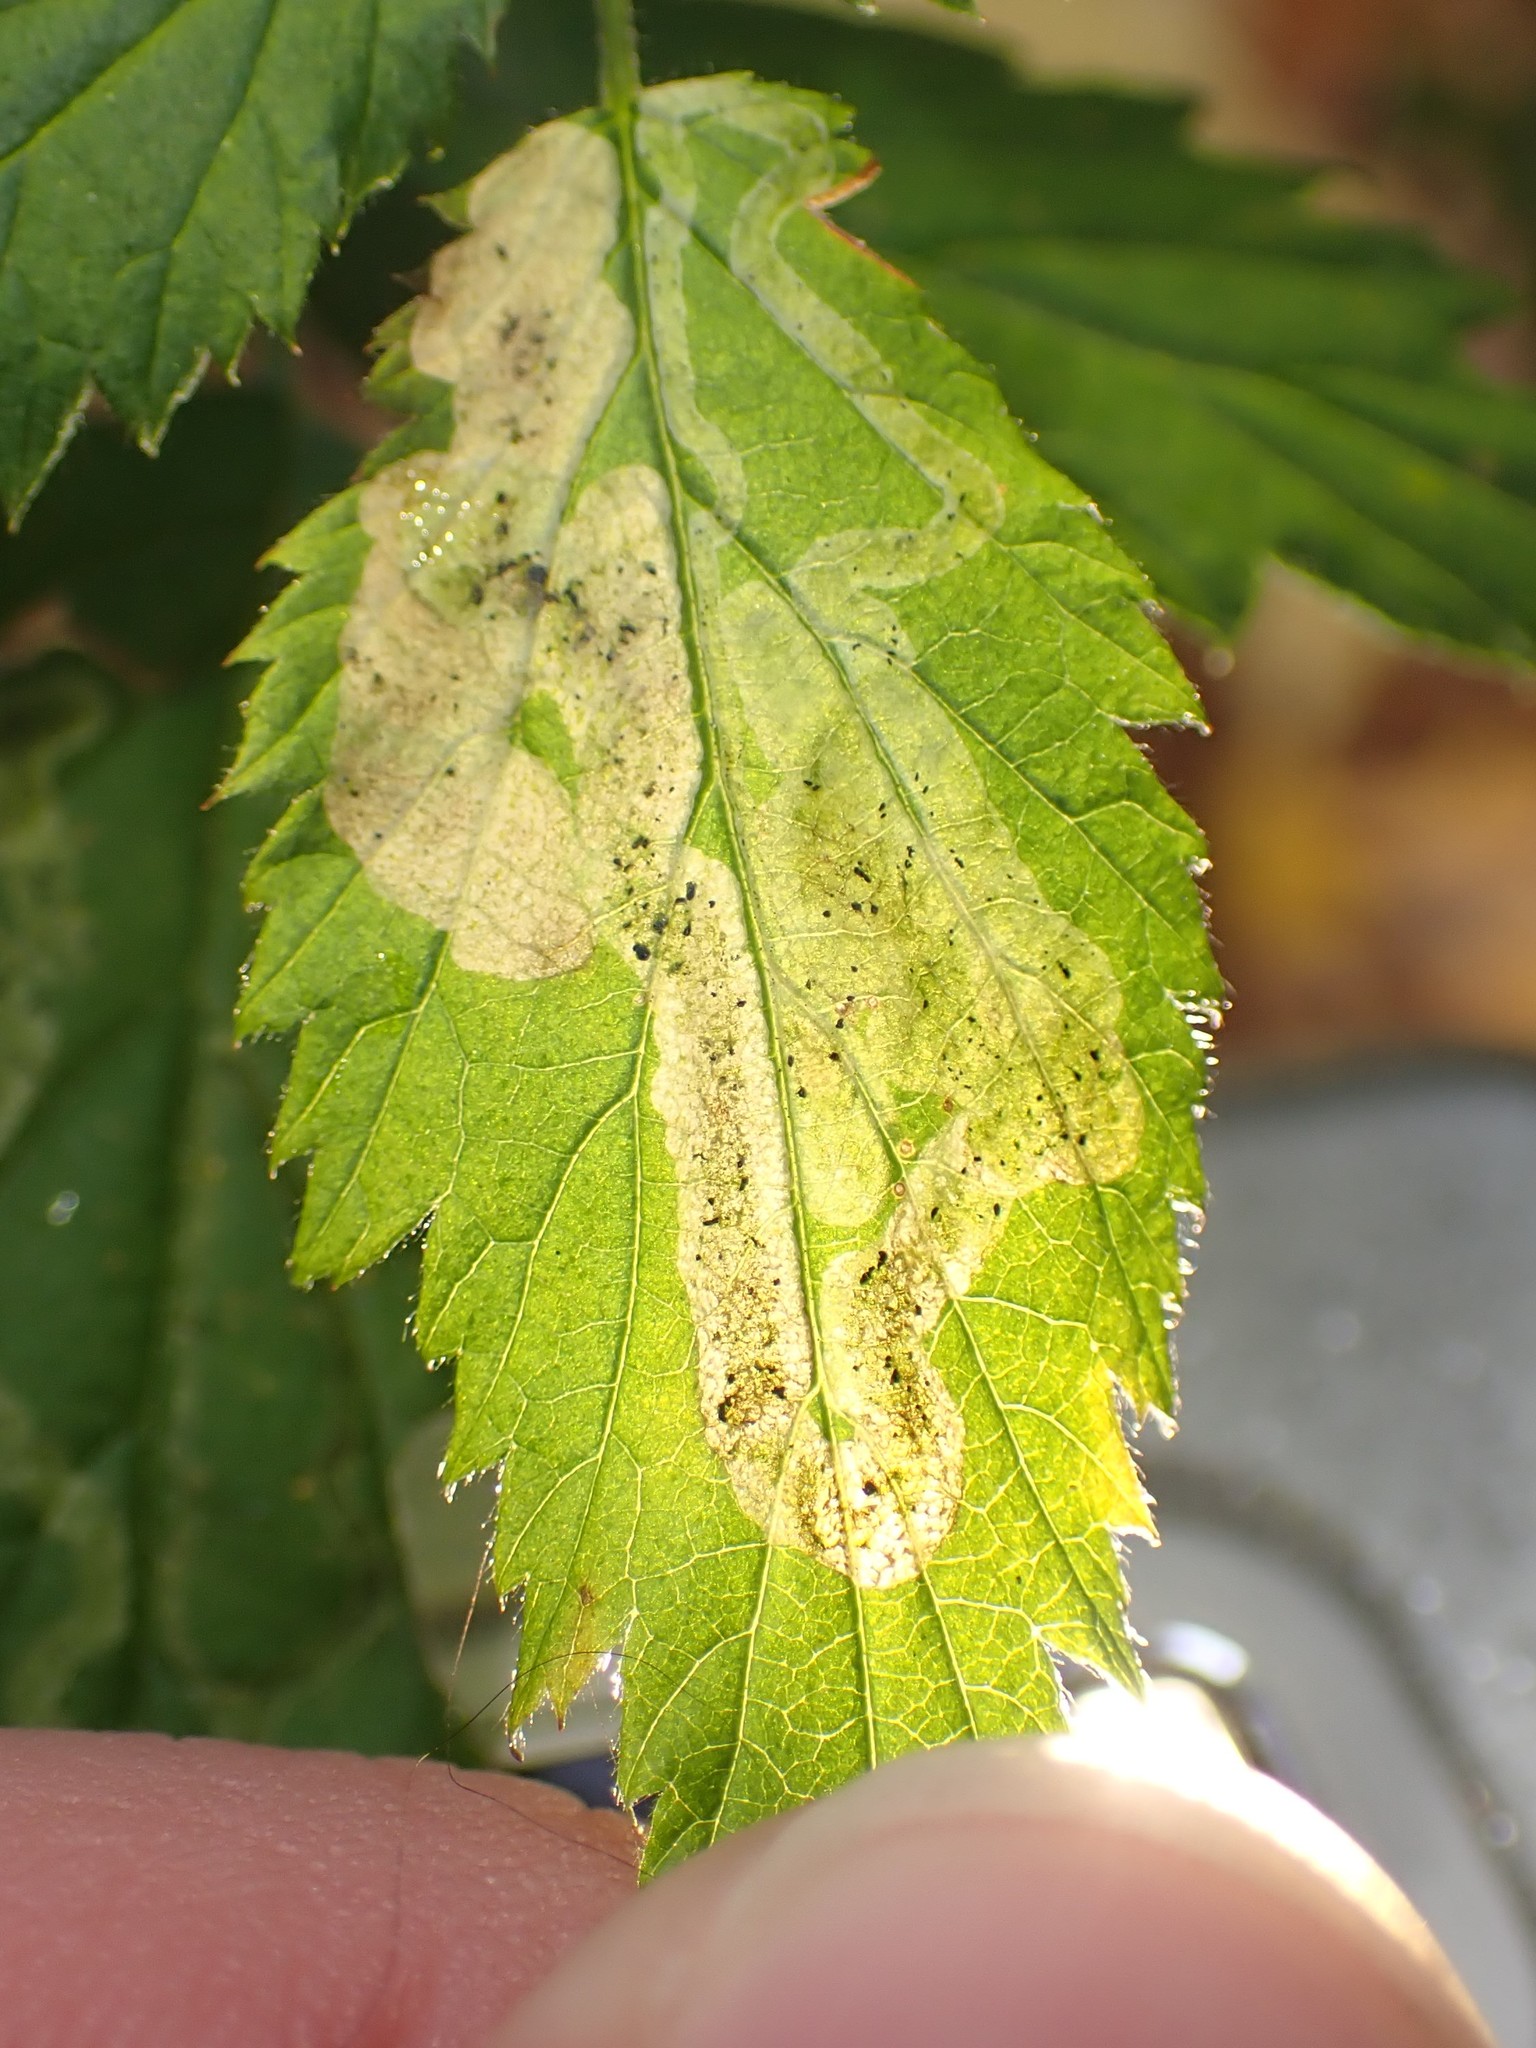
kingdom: Animalia
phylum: Arthropoda
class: Insecta
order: Diptera
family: Agromyzidae
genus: Agromyza
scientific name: Agromyza vockerothi
